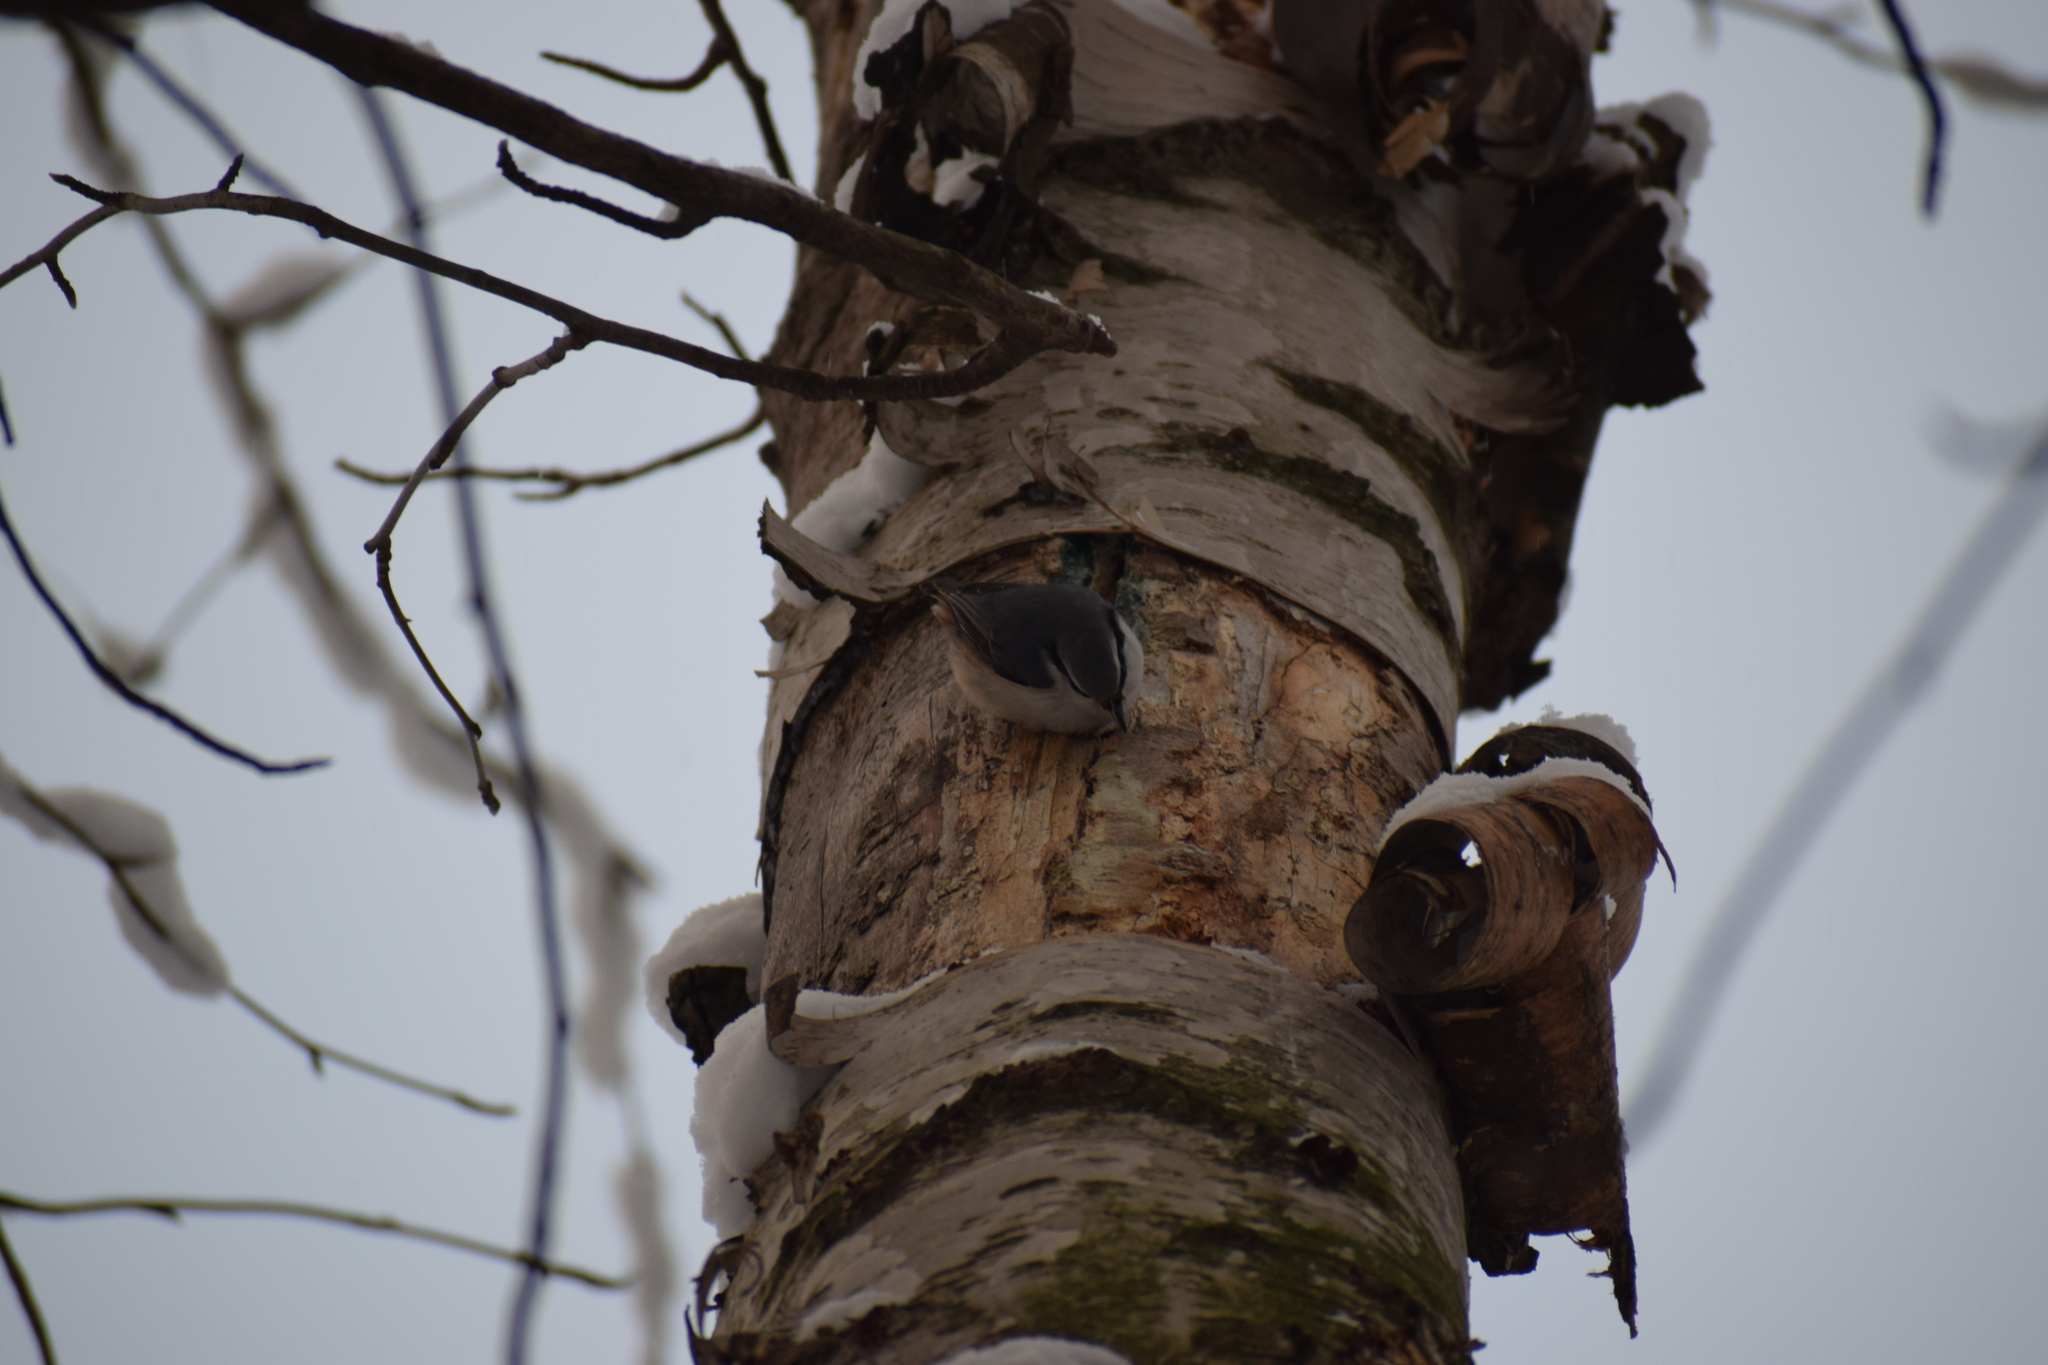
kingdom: Animalia
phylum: Chordata
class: Aves
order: Passeriformes
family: Sittidae
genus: Sitta
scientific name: Sitta europaea
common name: Eurasian nuthatch
